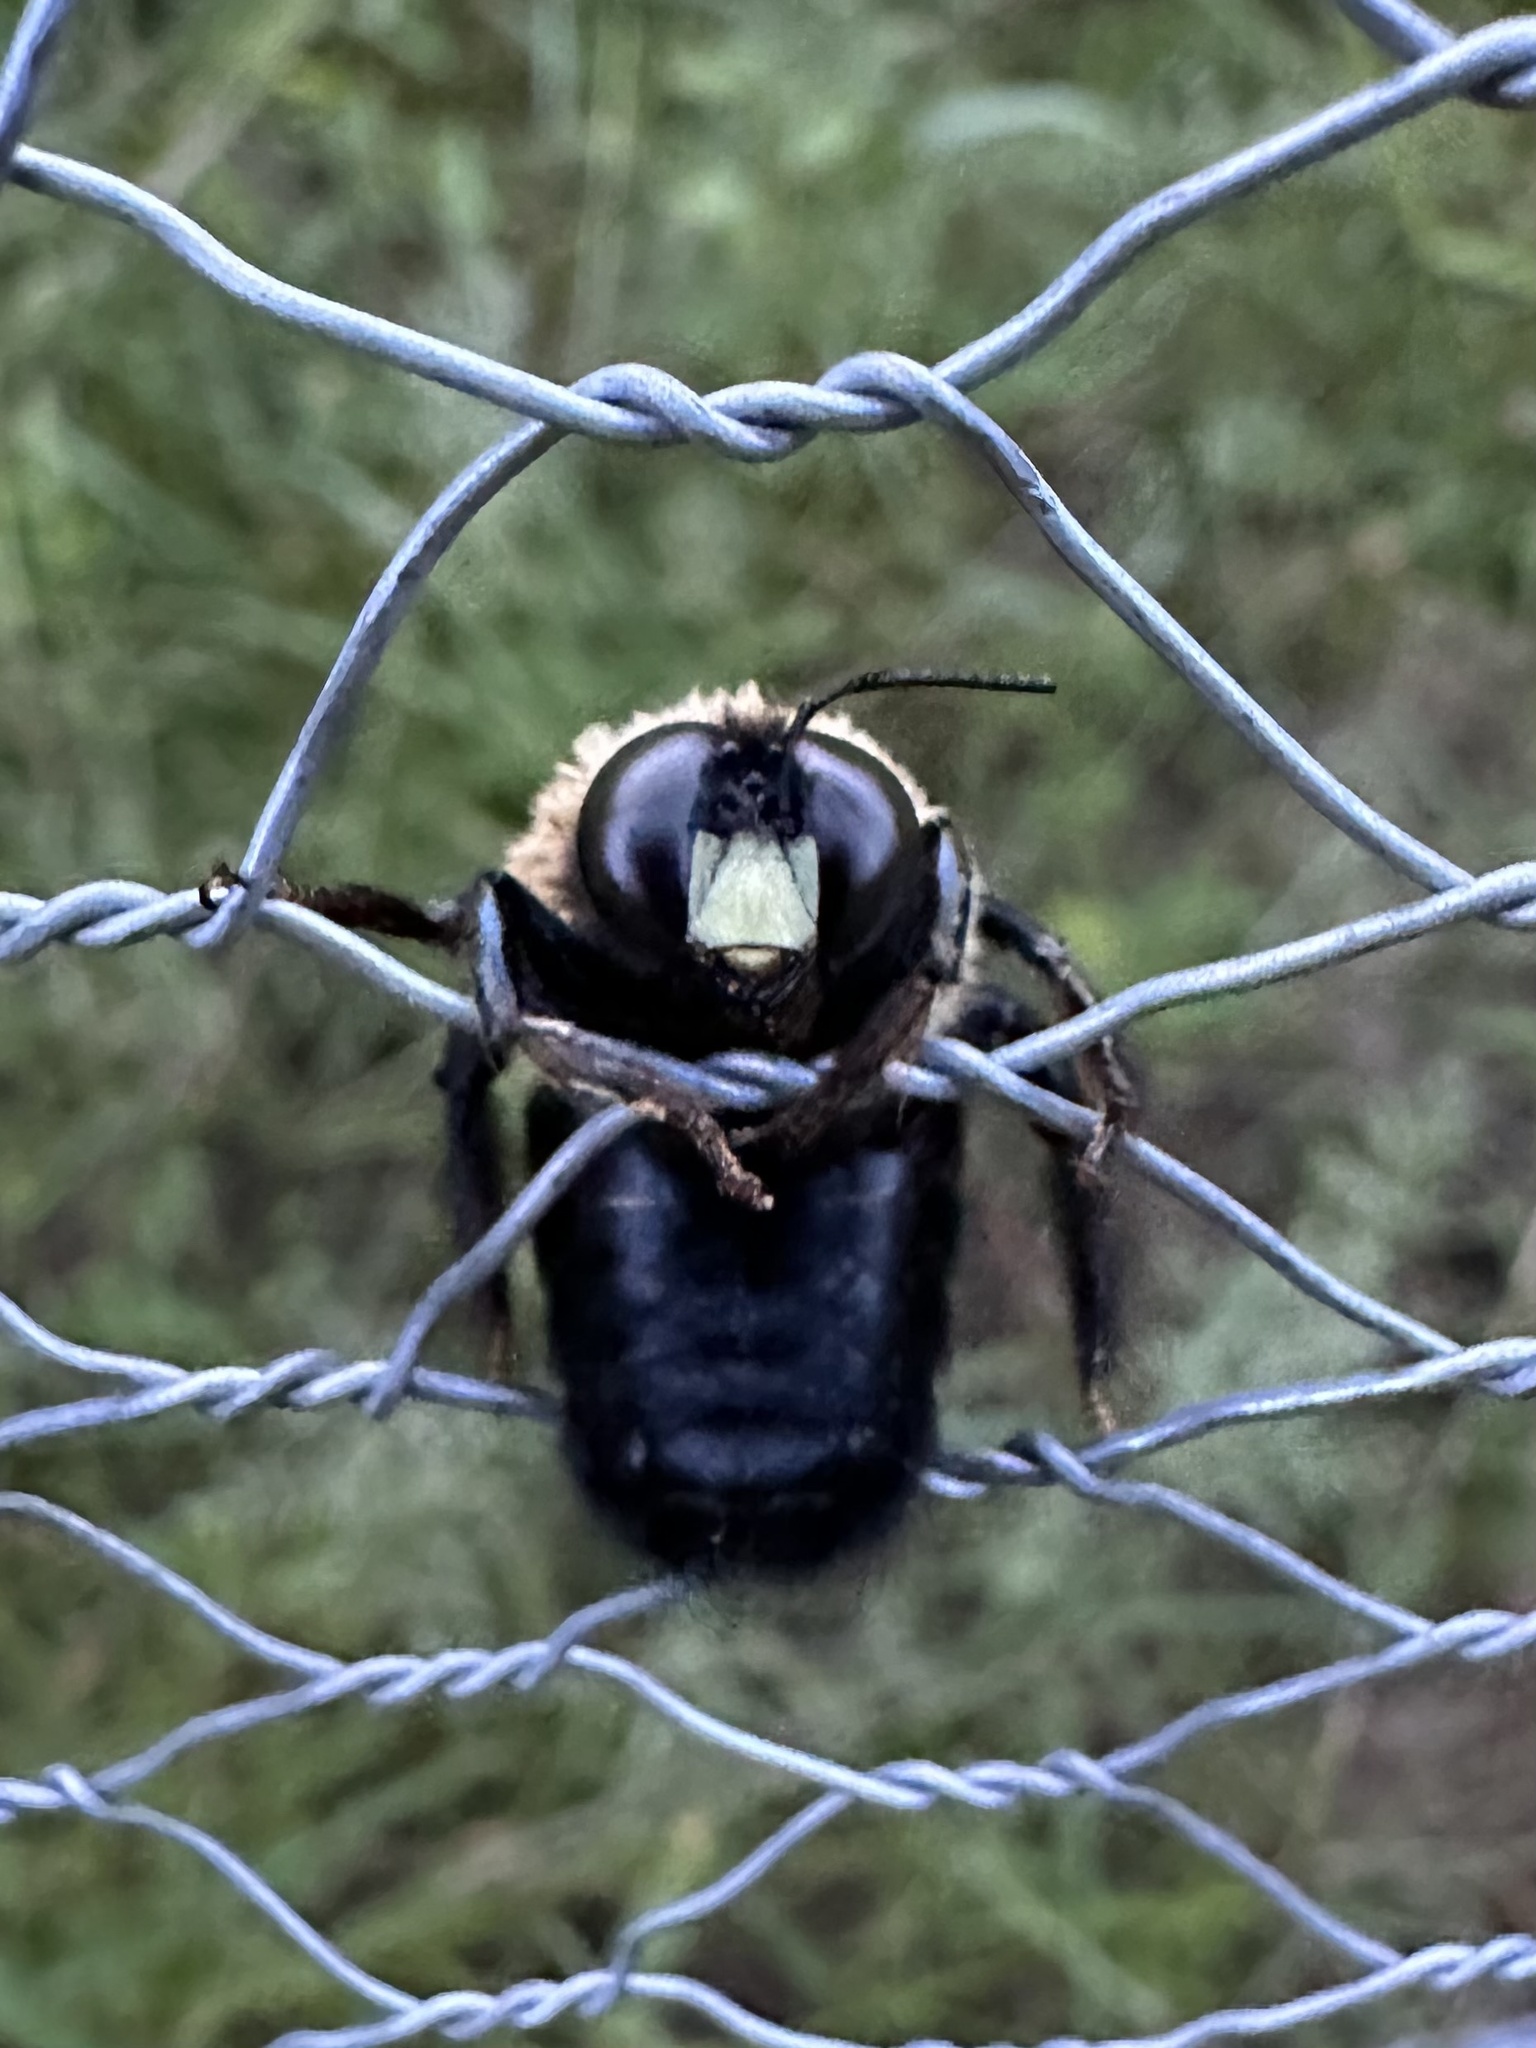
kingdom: Animalia
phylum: Arthropoda
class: Insecta
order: Hymenoptera
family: Apidae
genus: Xylocopa
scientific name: Xylocopa virginica
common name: Carpenter bee
